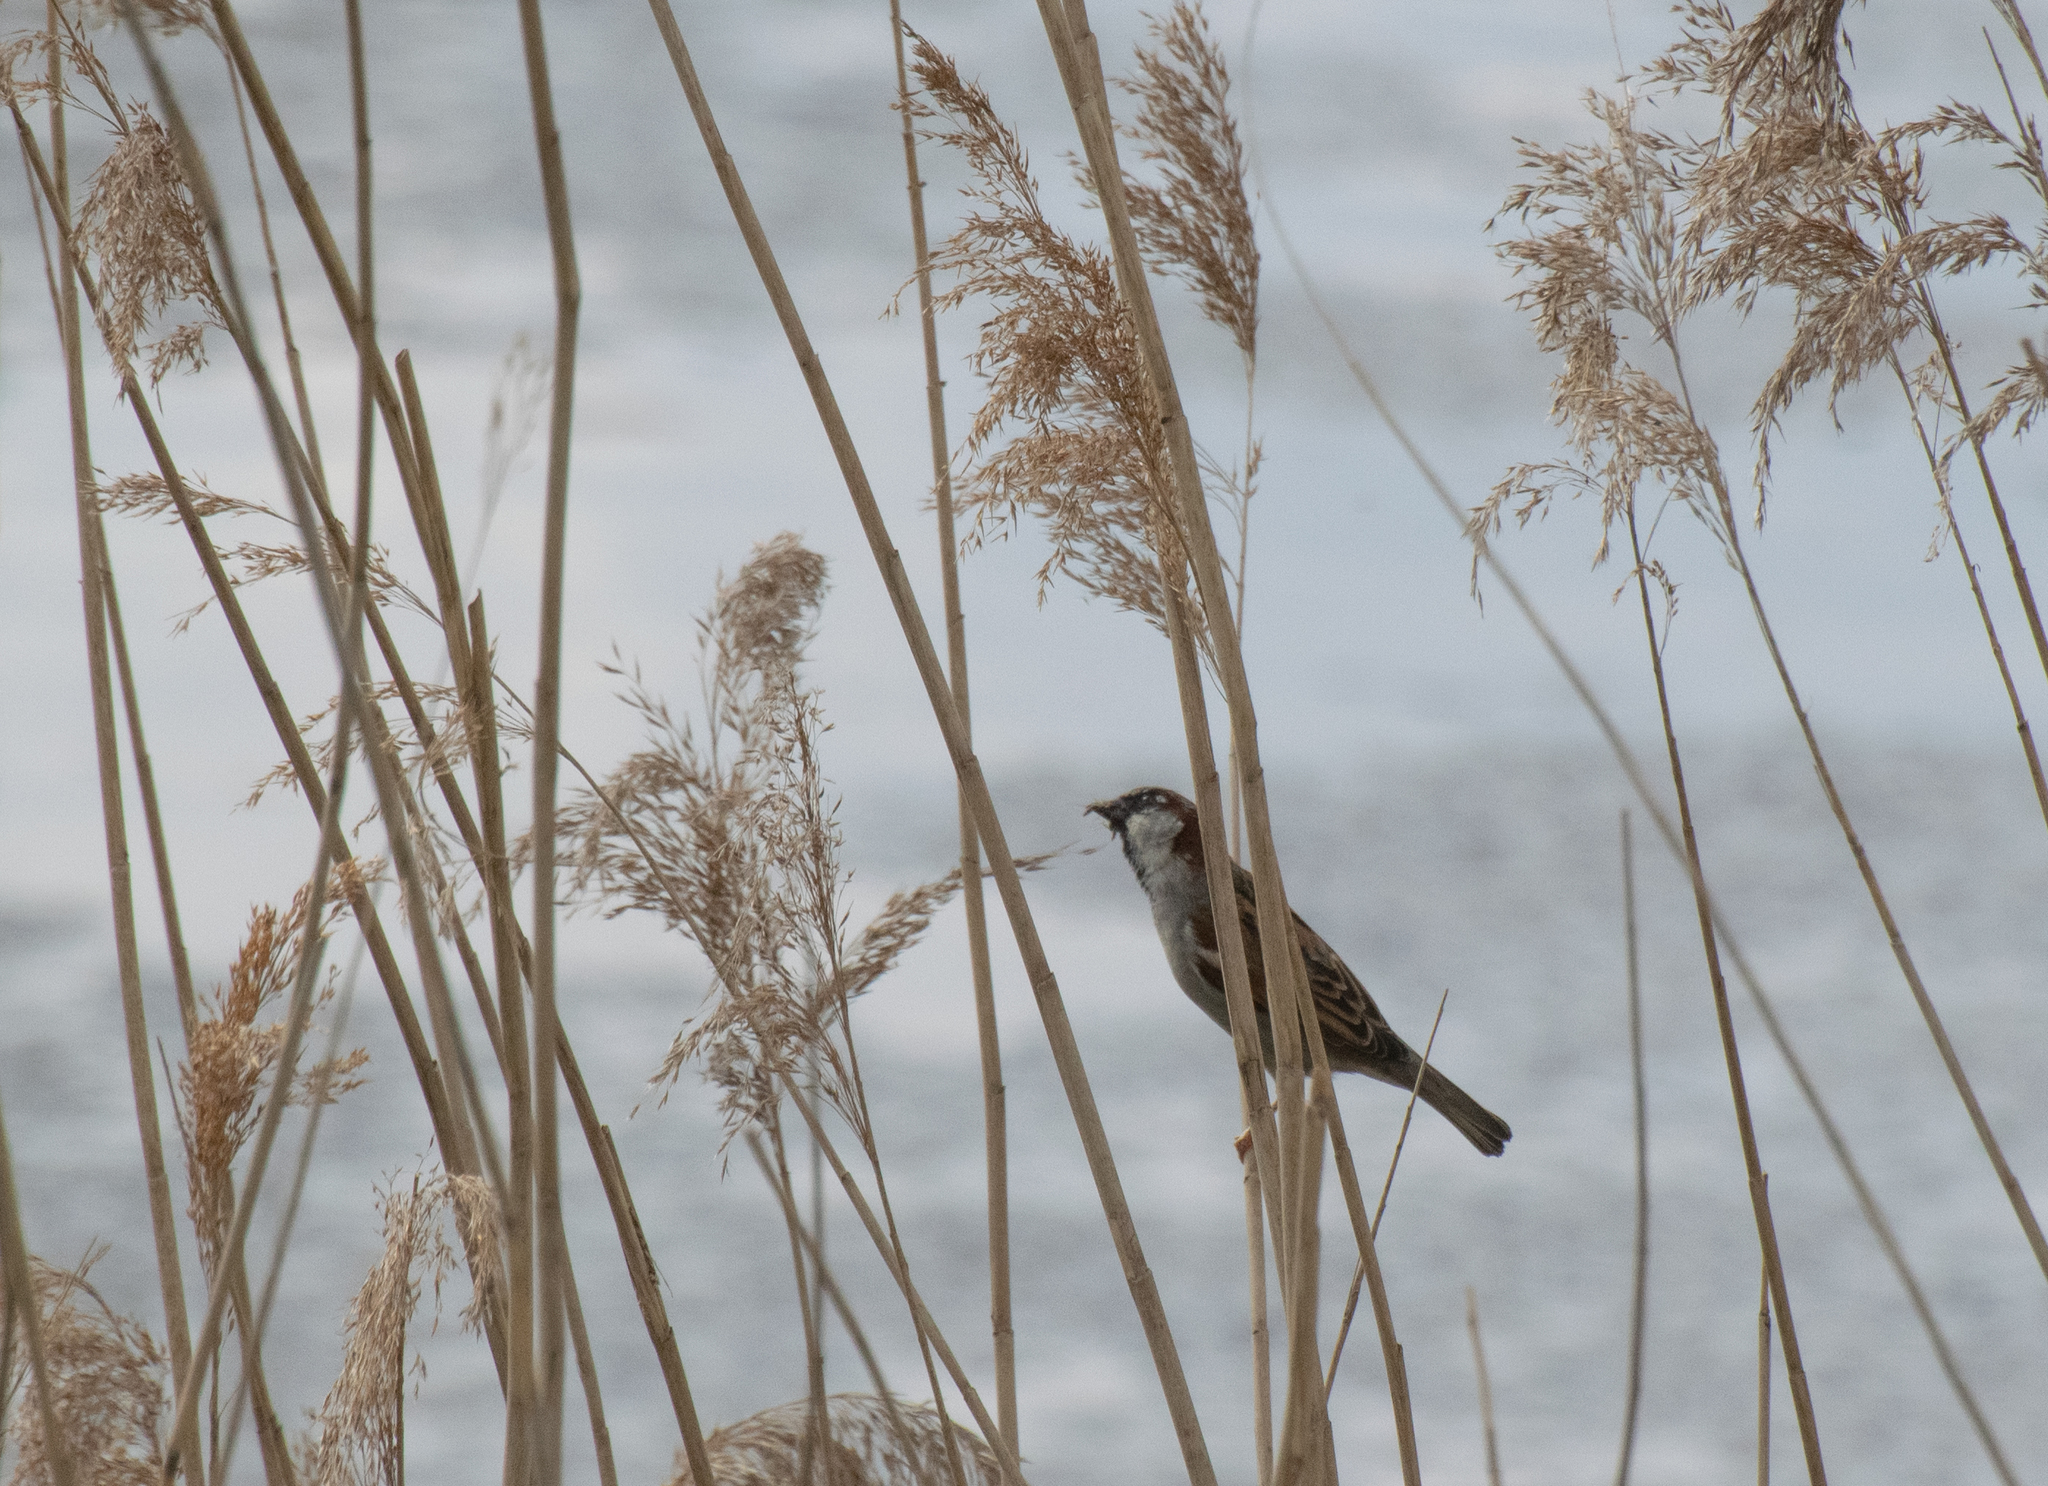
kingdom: Animalia
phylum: Chordata
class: Aves
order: Passeriformes
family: Passeridae
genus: Passer
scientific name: Passer domesticus
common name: House sparrow
